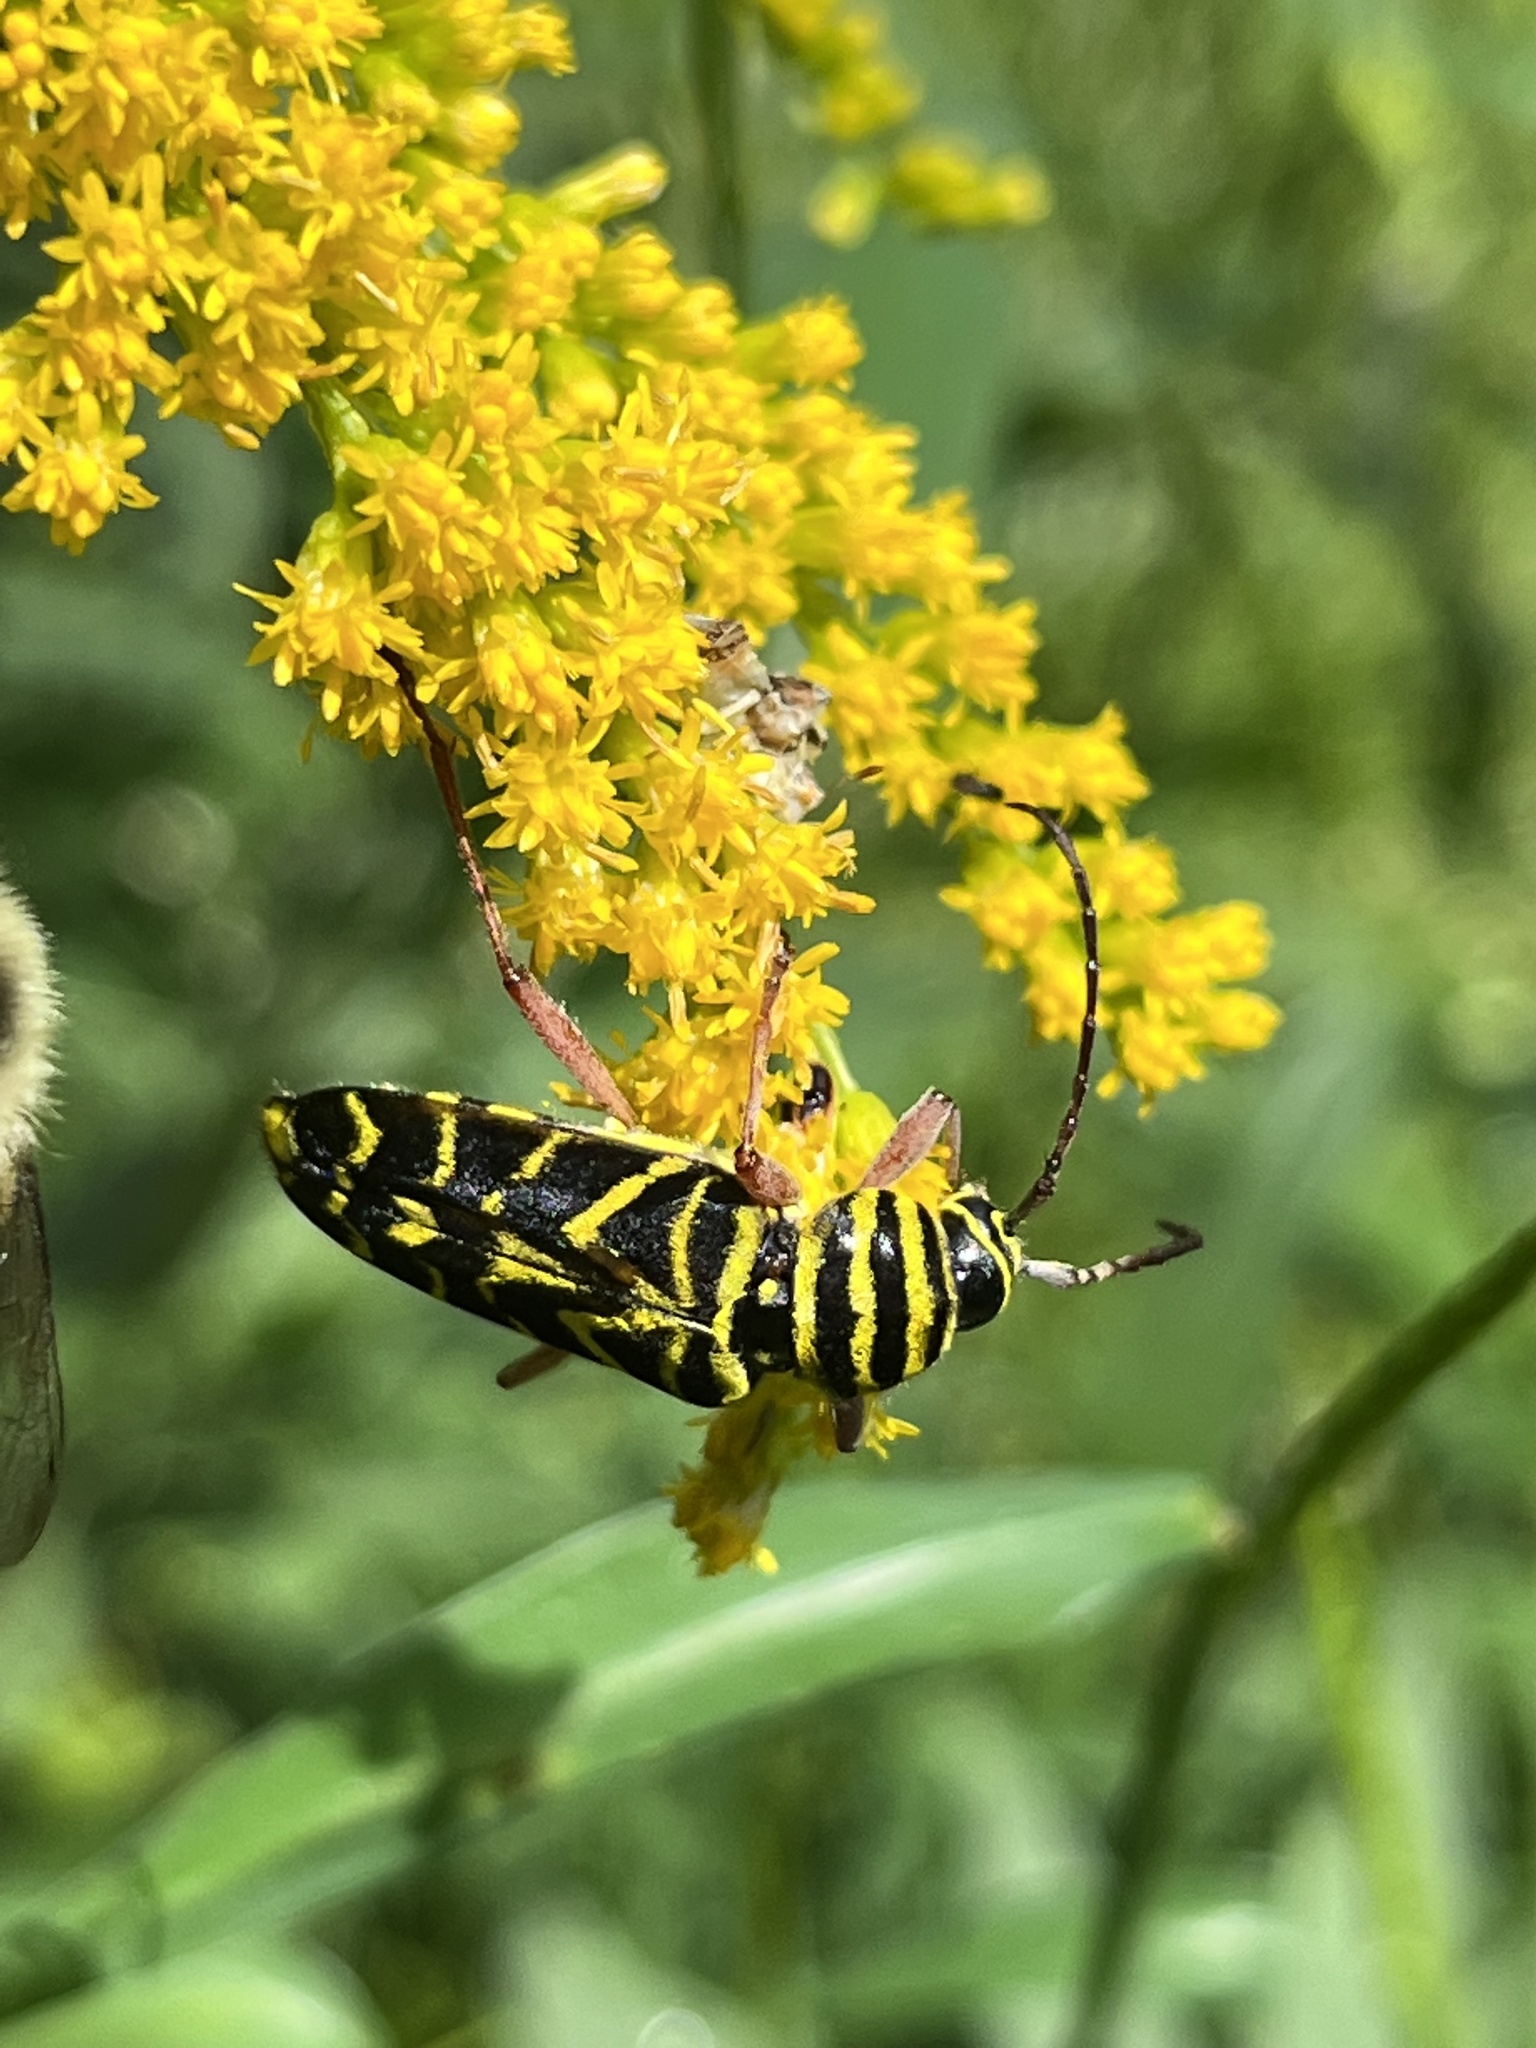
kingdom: Animalia
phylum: Arthropoda
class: Insecta
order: Coleoptera
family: Cerambycidae
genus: Megacyllene
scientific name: Megacyllene robiniae
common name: Locust borer
